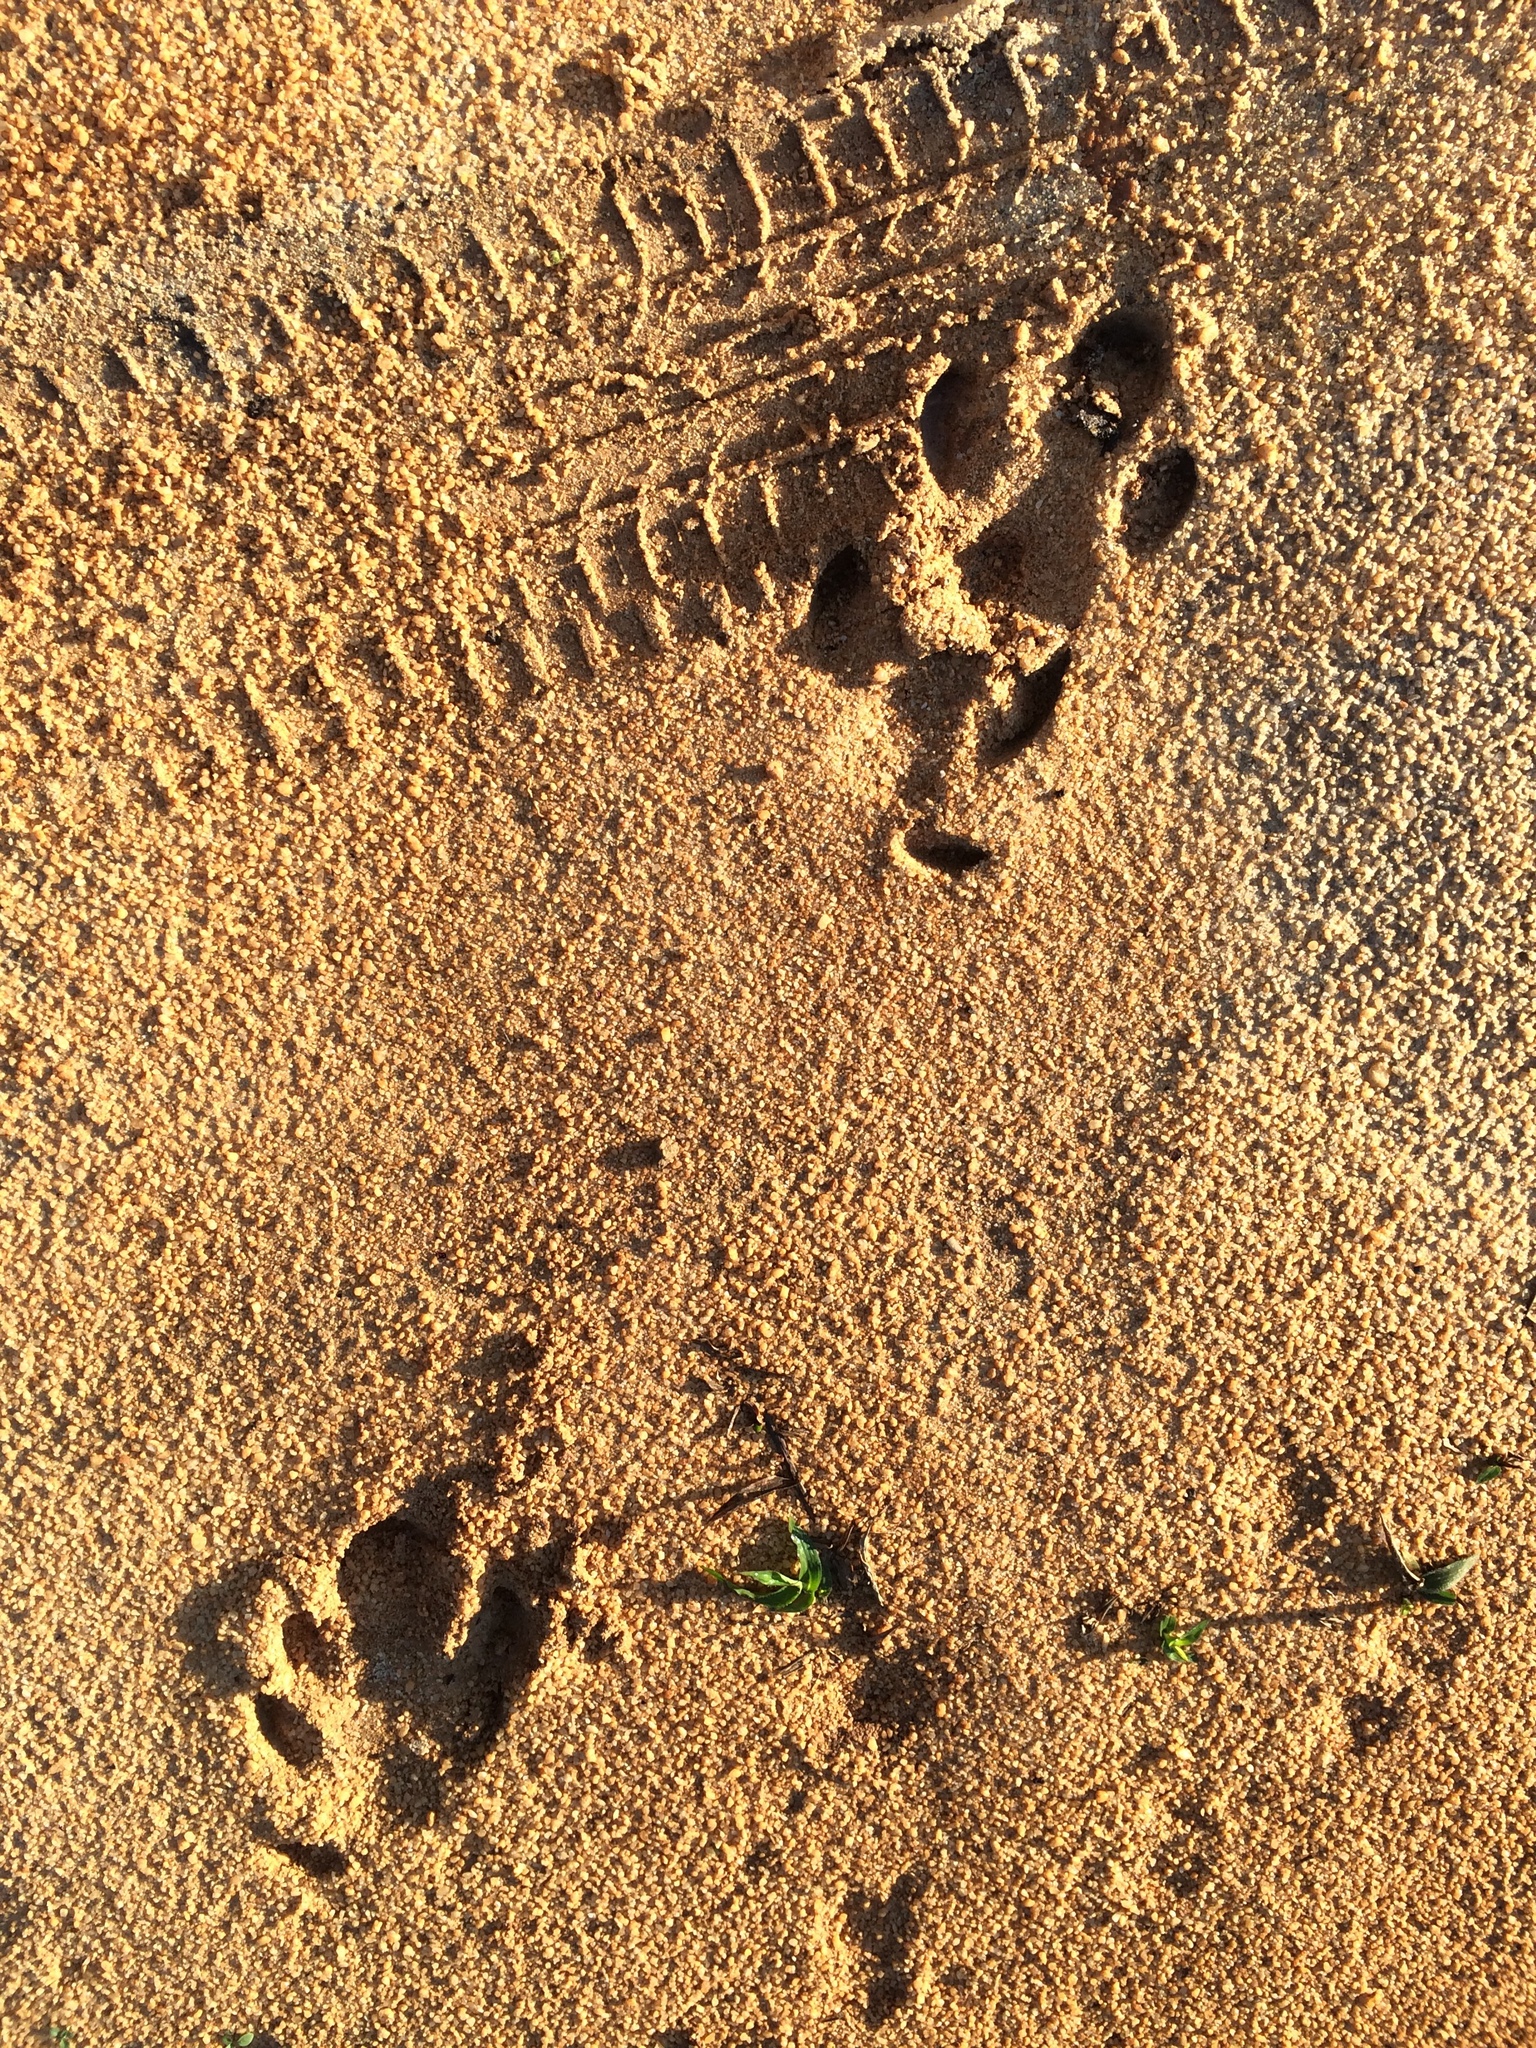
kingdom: Animalia
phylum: Chordata
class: Mammalia
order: Perissodactyla
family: Tapiridae
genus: Tapirus
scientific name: Tapirus terrestris
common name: Brazilian tapir
